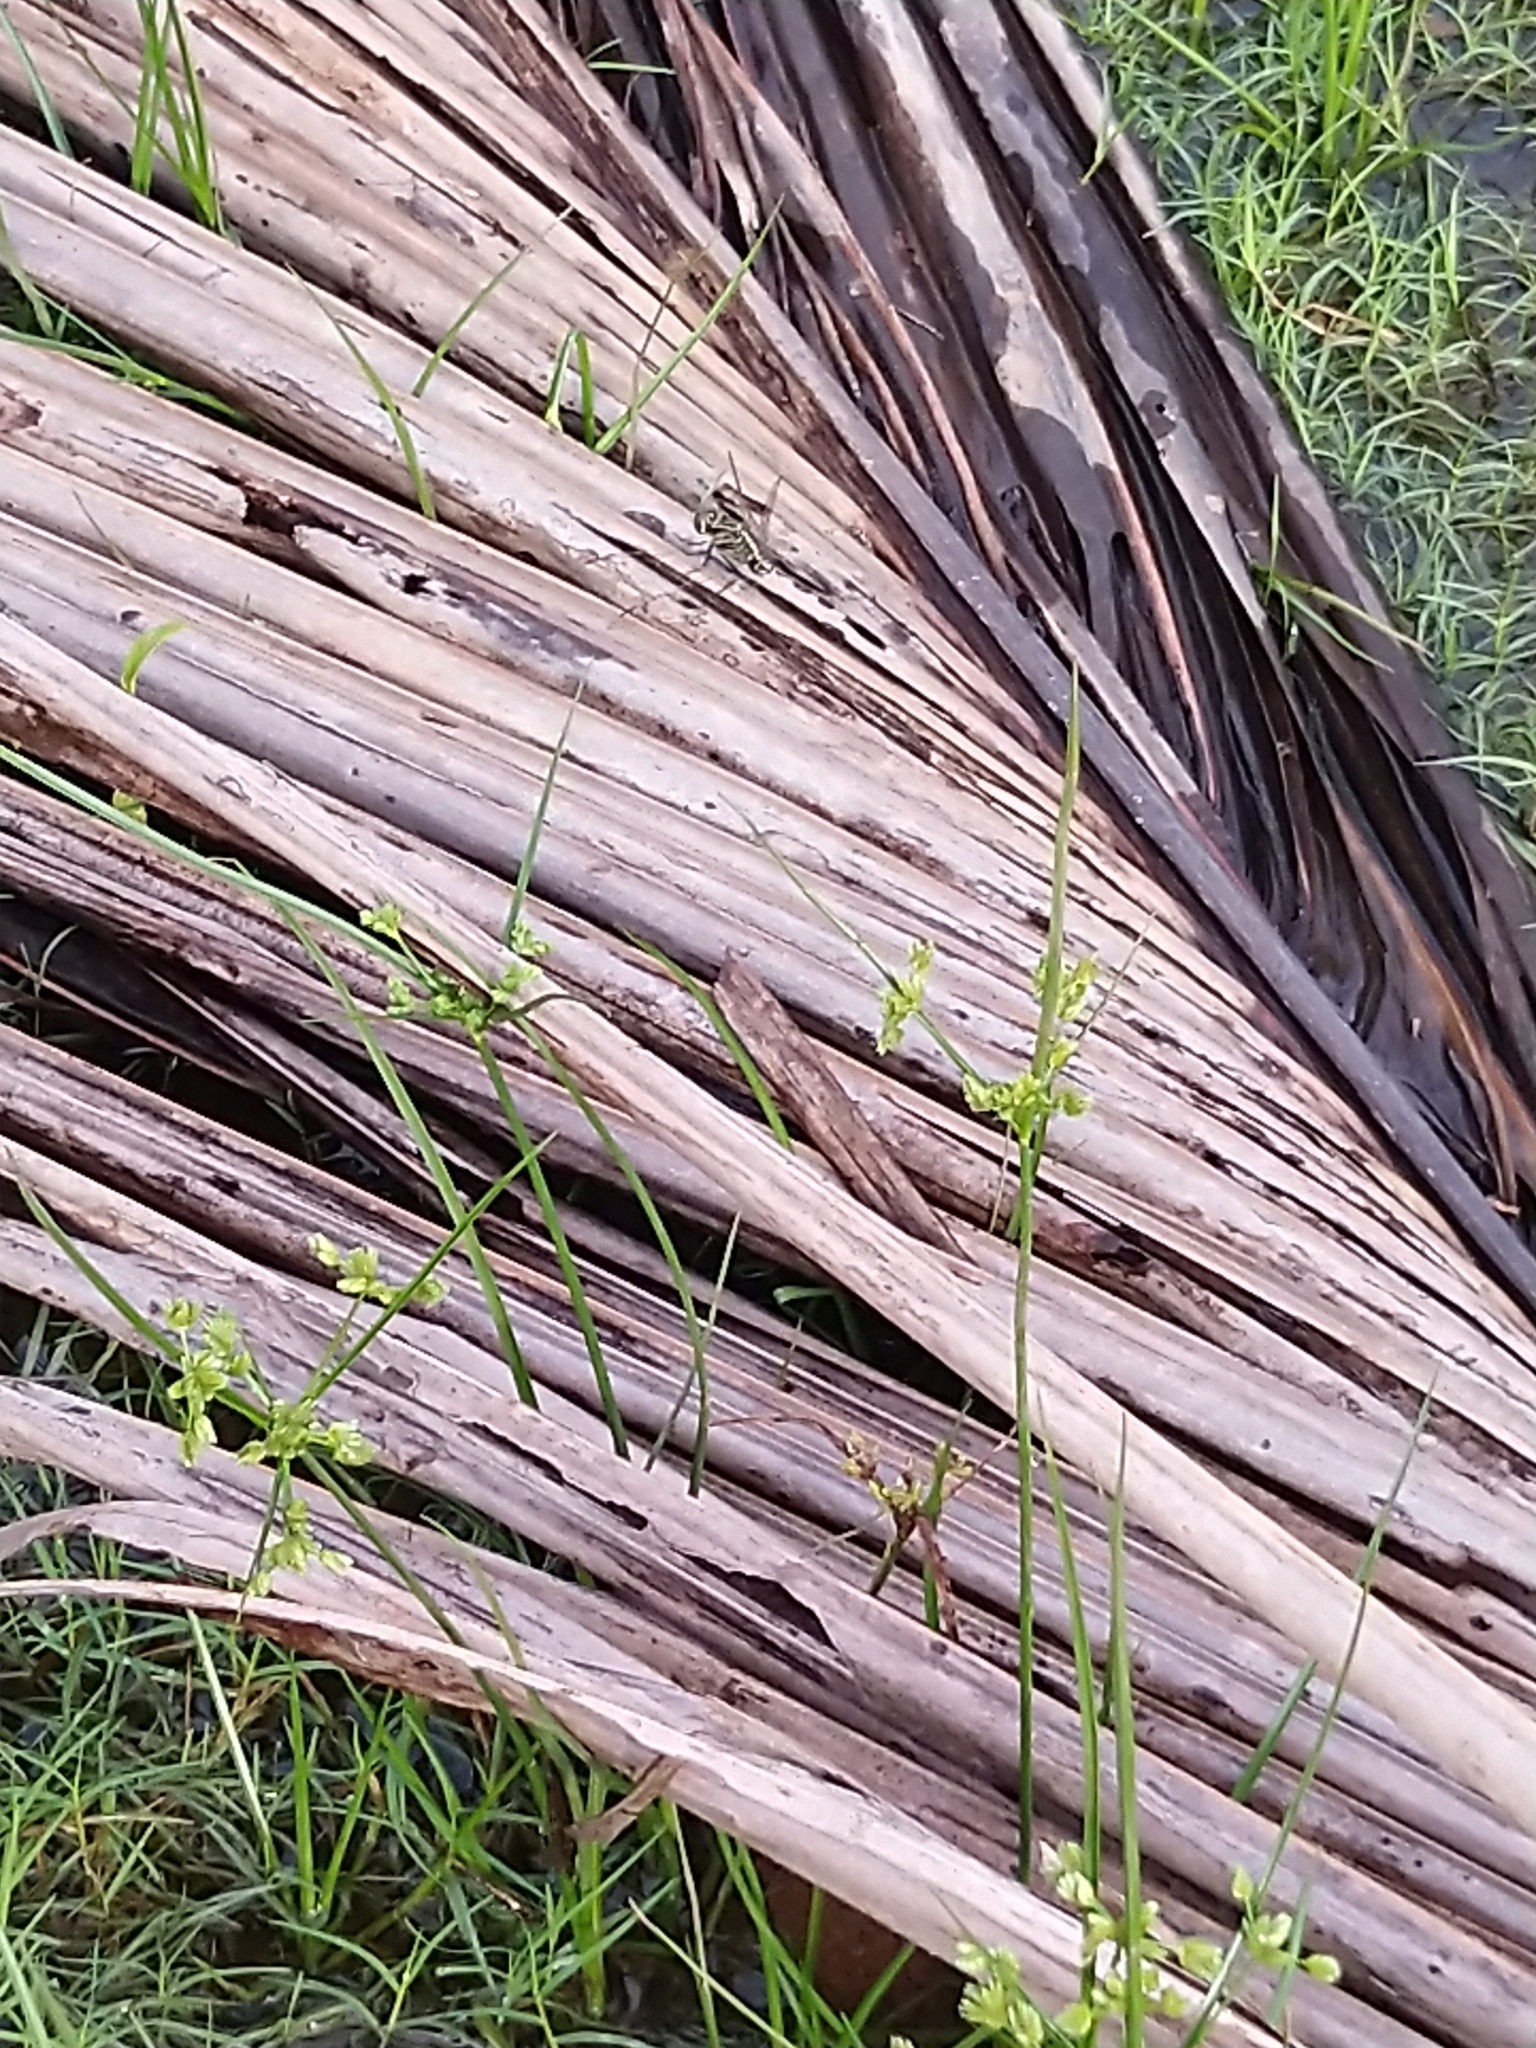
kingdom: Animalia
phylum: Arthropoda
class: Insecta
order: Odonata
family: Libellulidae
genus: Orthetrum
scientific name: Orthetrum sabina
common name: Slender skimmer
